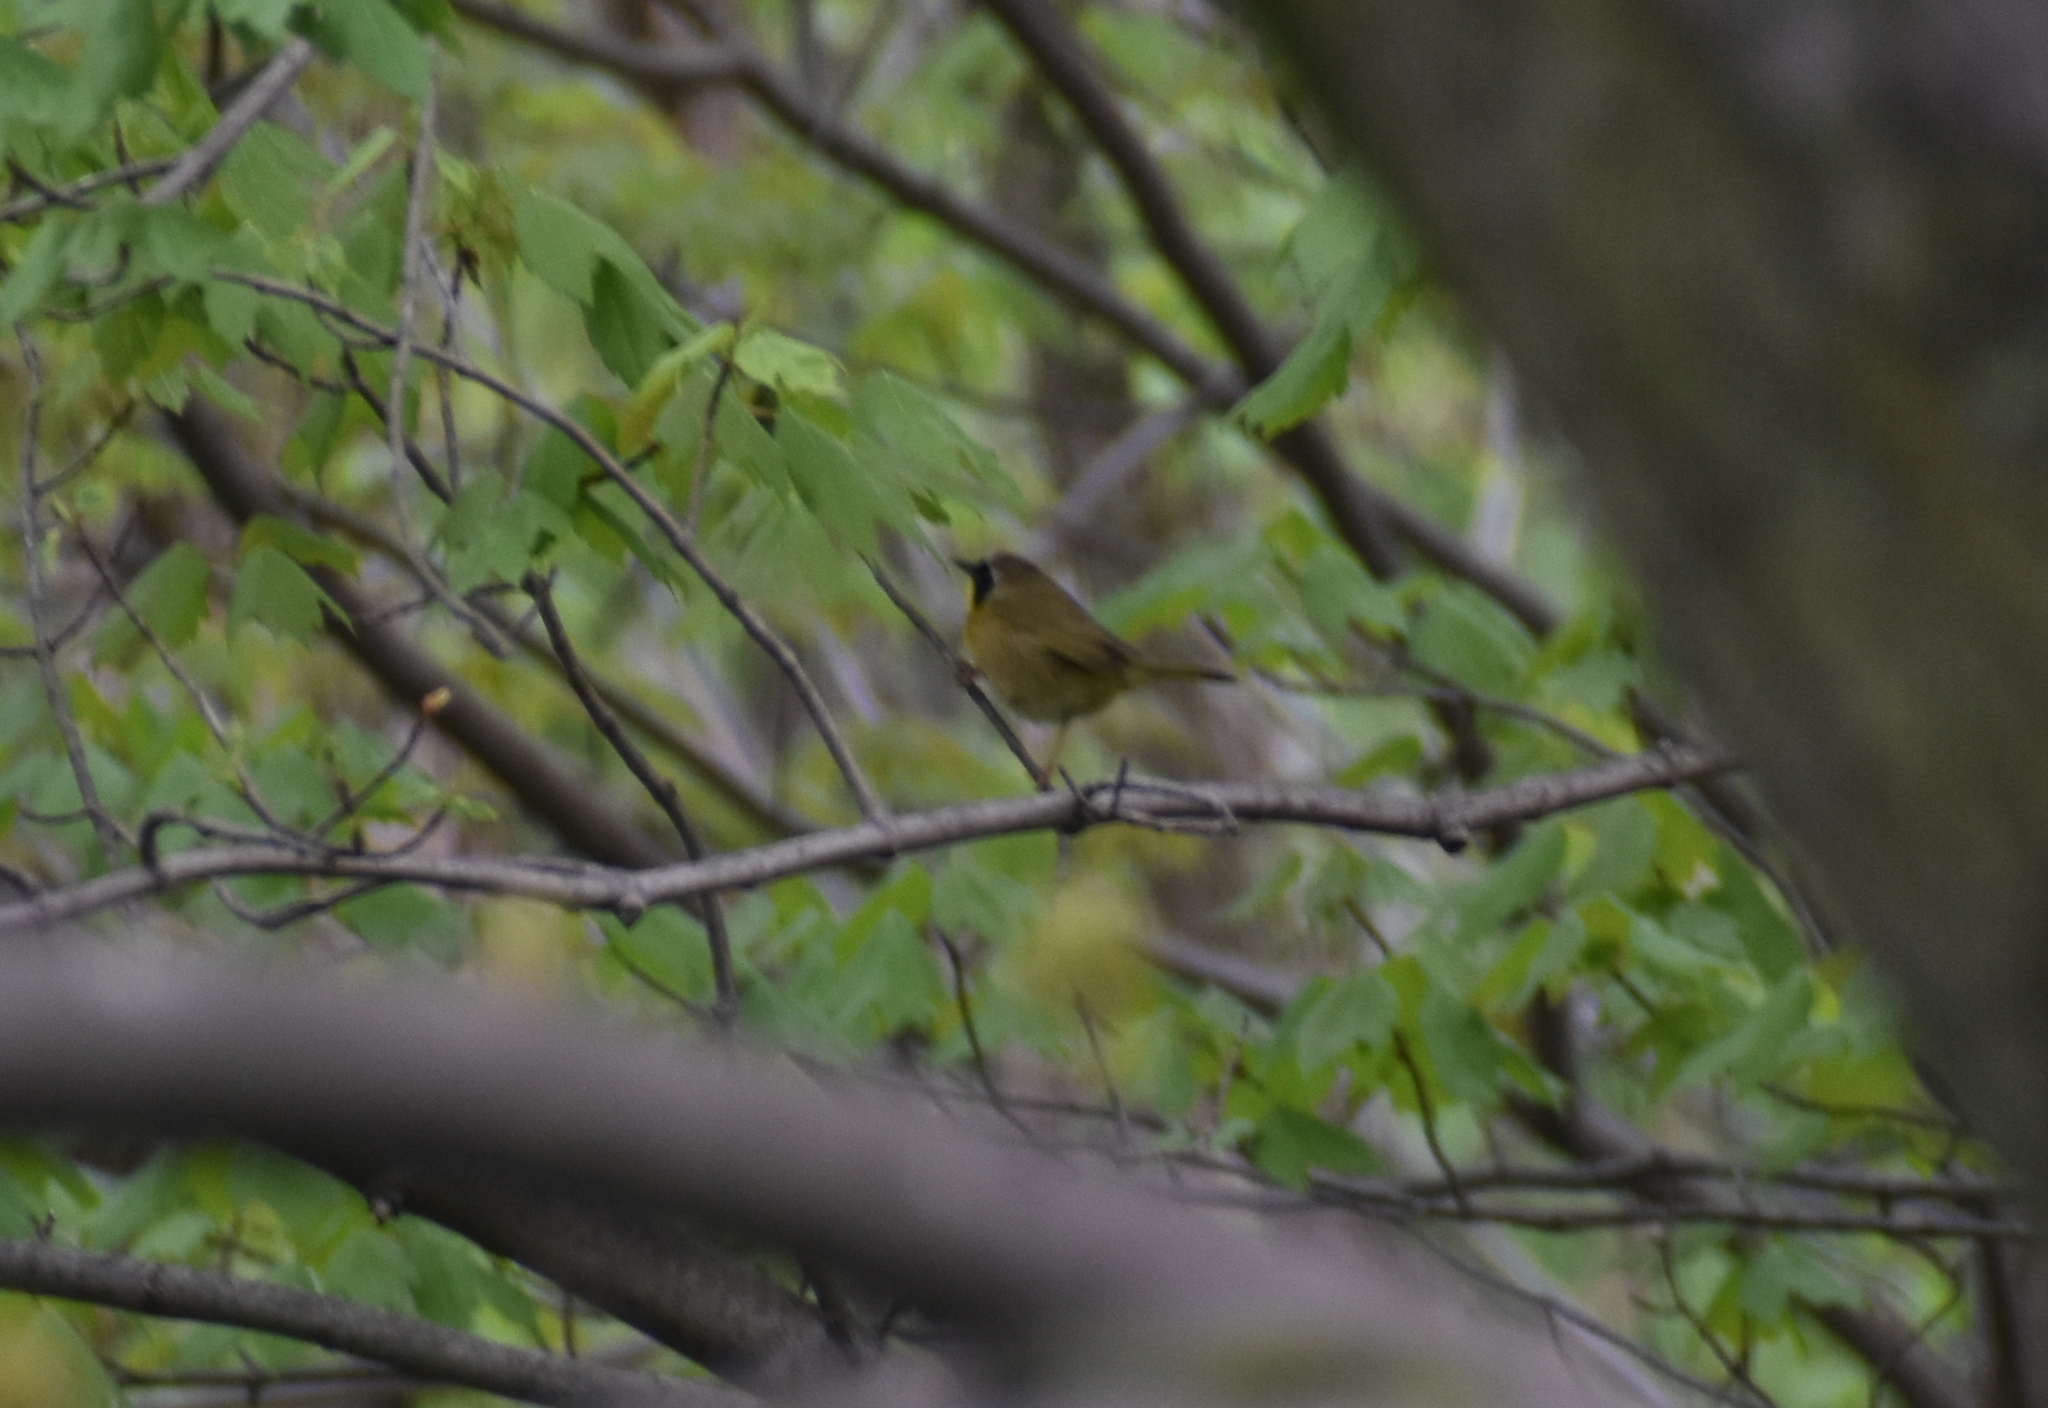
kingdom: Animalia
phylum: Chordata
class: Aves
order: Passeriformes
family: Parulidae
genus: Geothlypis
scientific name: Geothlypis trichas
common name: Common yellowthroat
